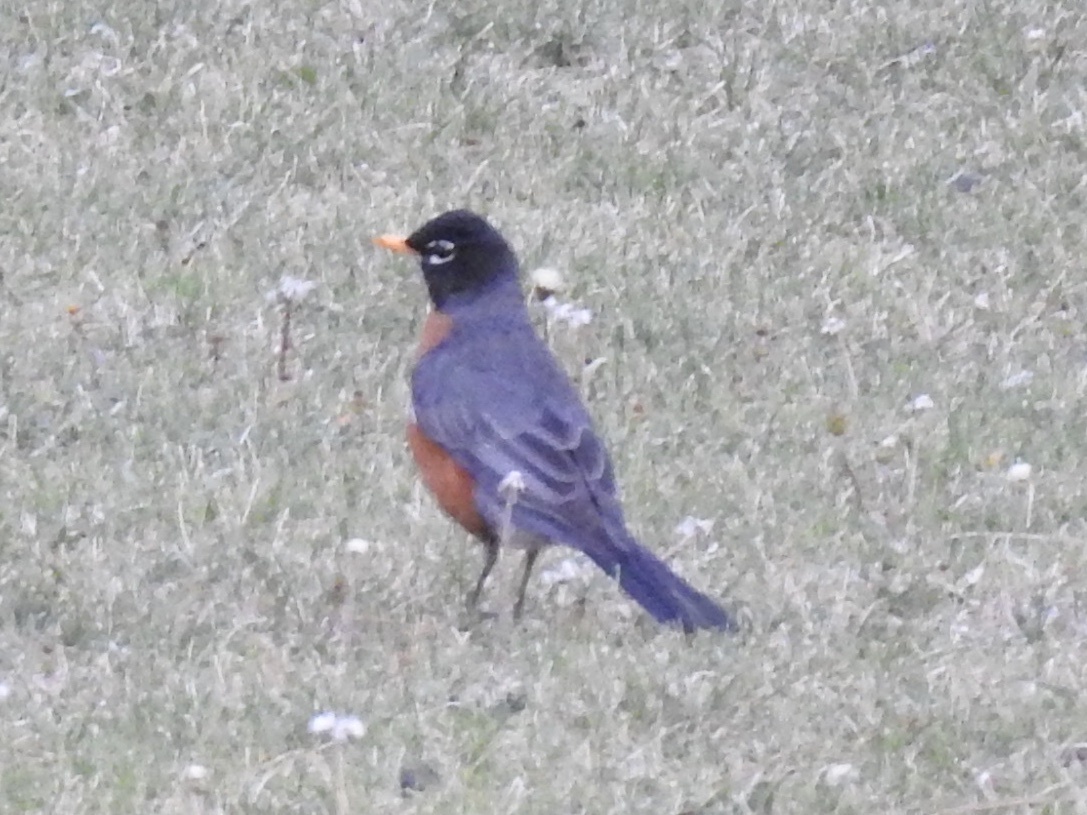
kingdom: Animalia
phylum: Chordata
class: Aves
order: Passeriformes
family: Turdidae
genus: Turdus
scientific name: Turdus migratorius
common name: American robin
